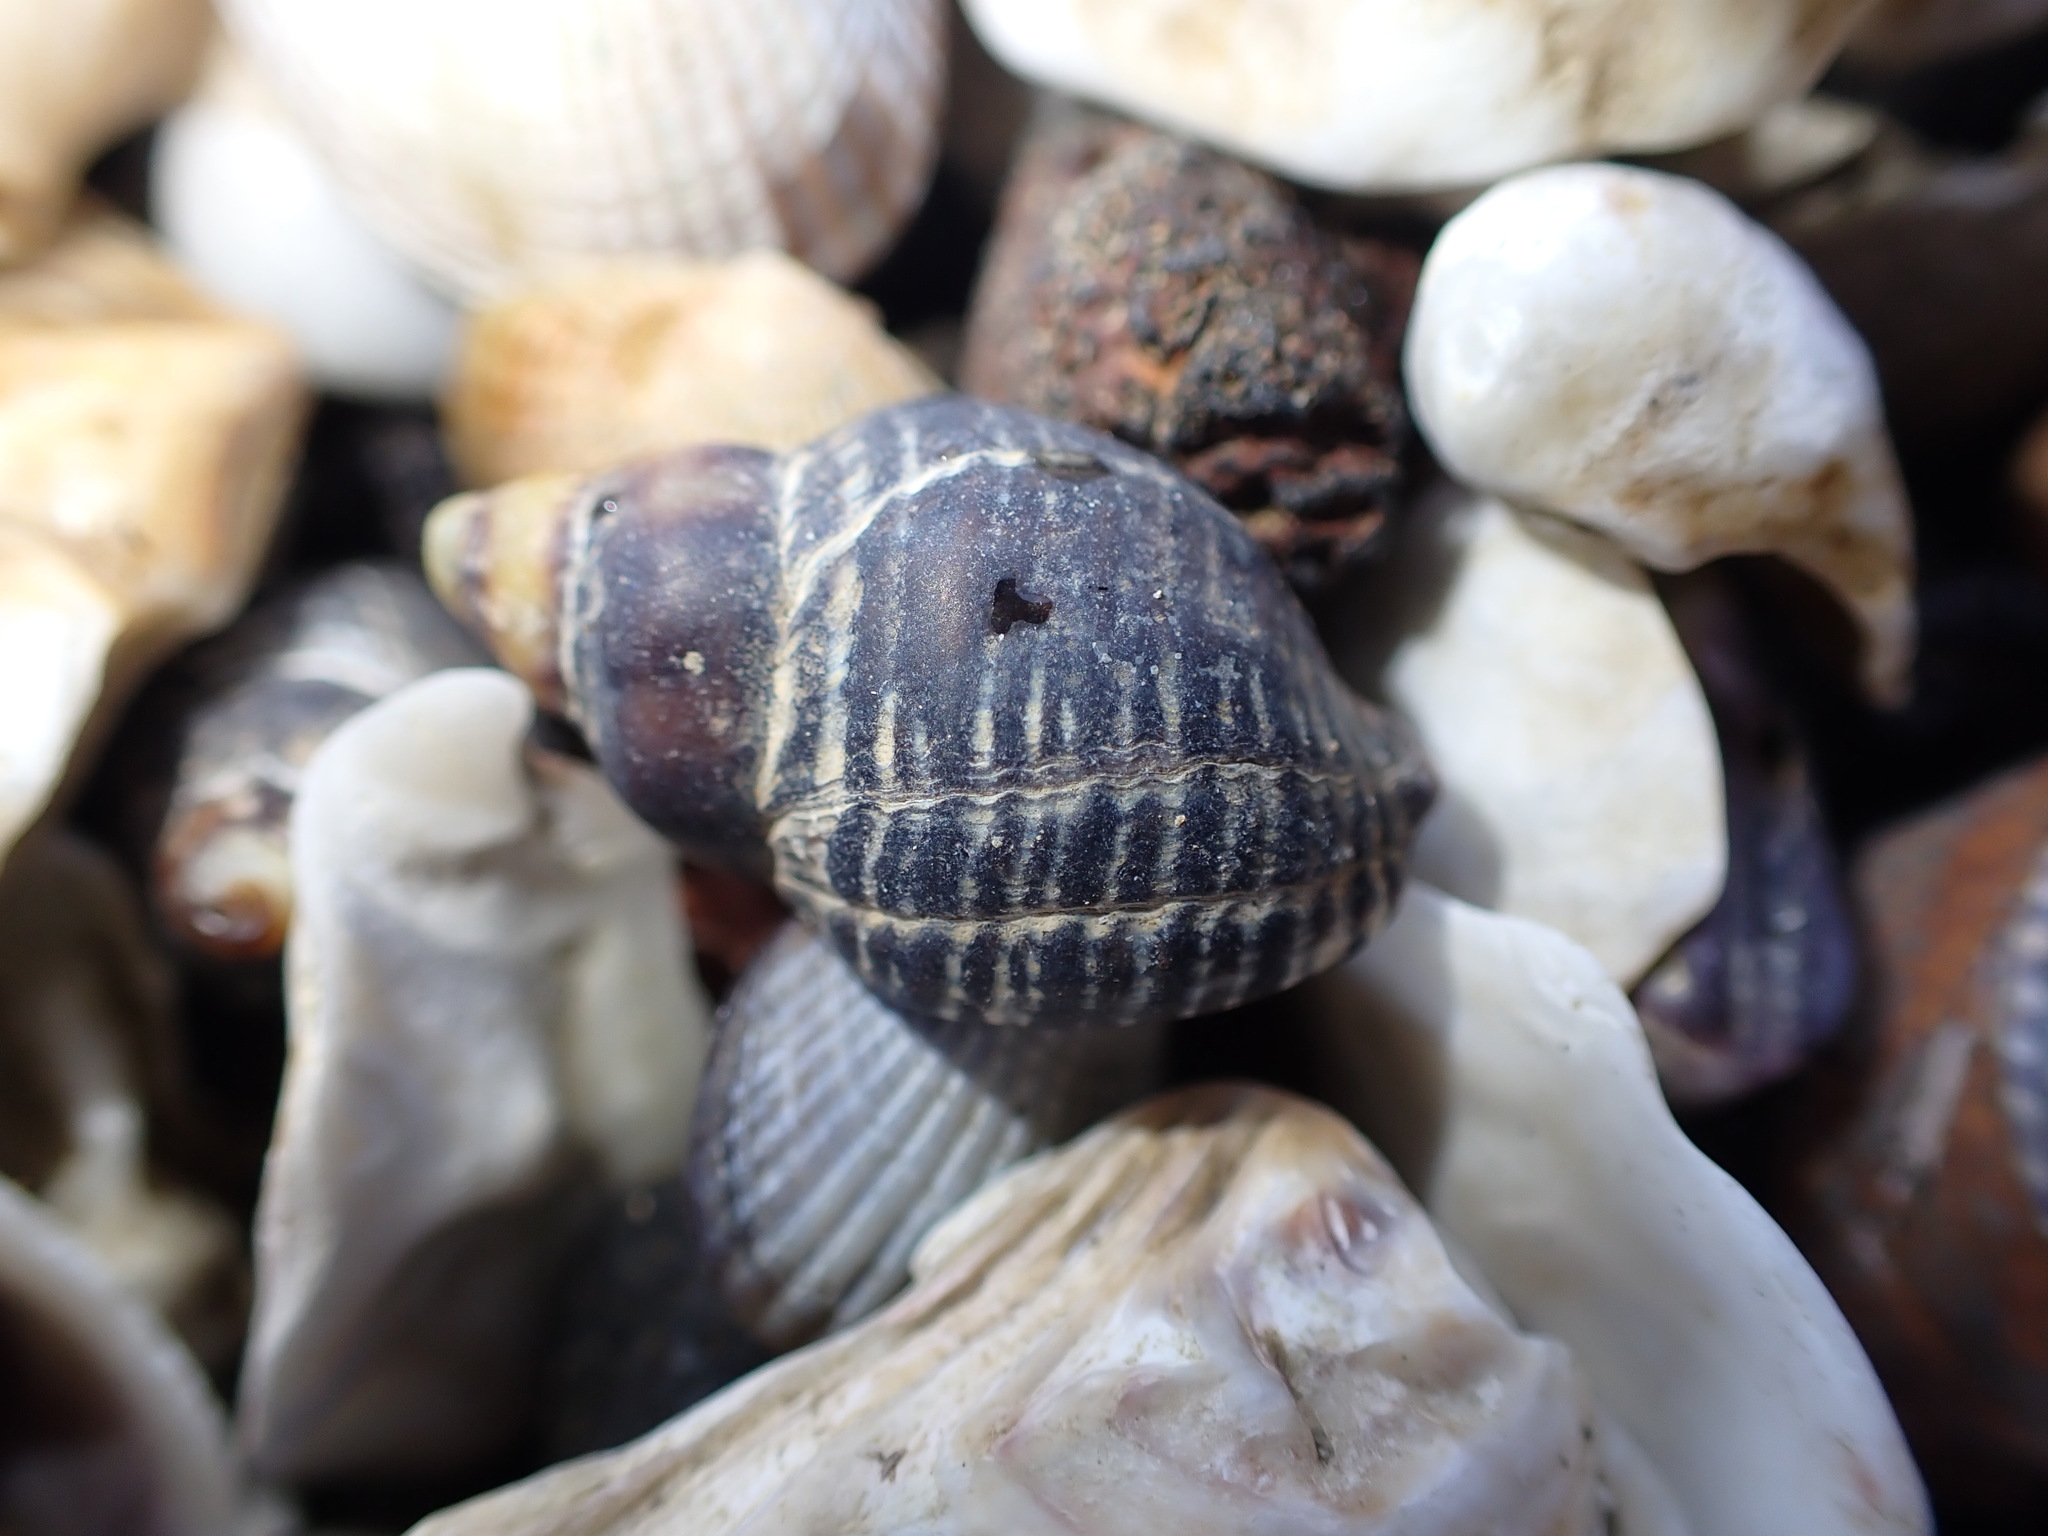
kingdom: Animalia
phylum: Mollusca
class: Gastropoda
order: Neogastropoda
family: Muricidae
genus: Haustrum
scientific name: Haustrum albomarginatum
